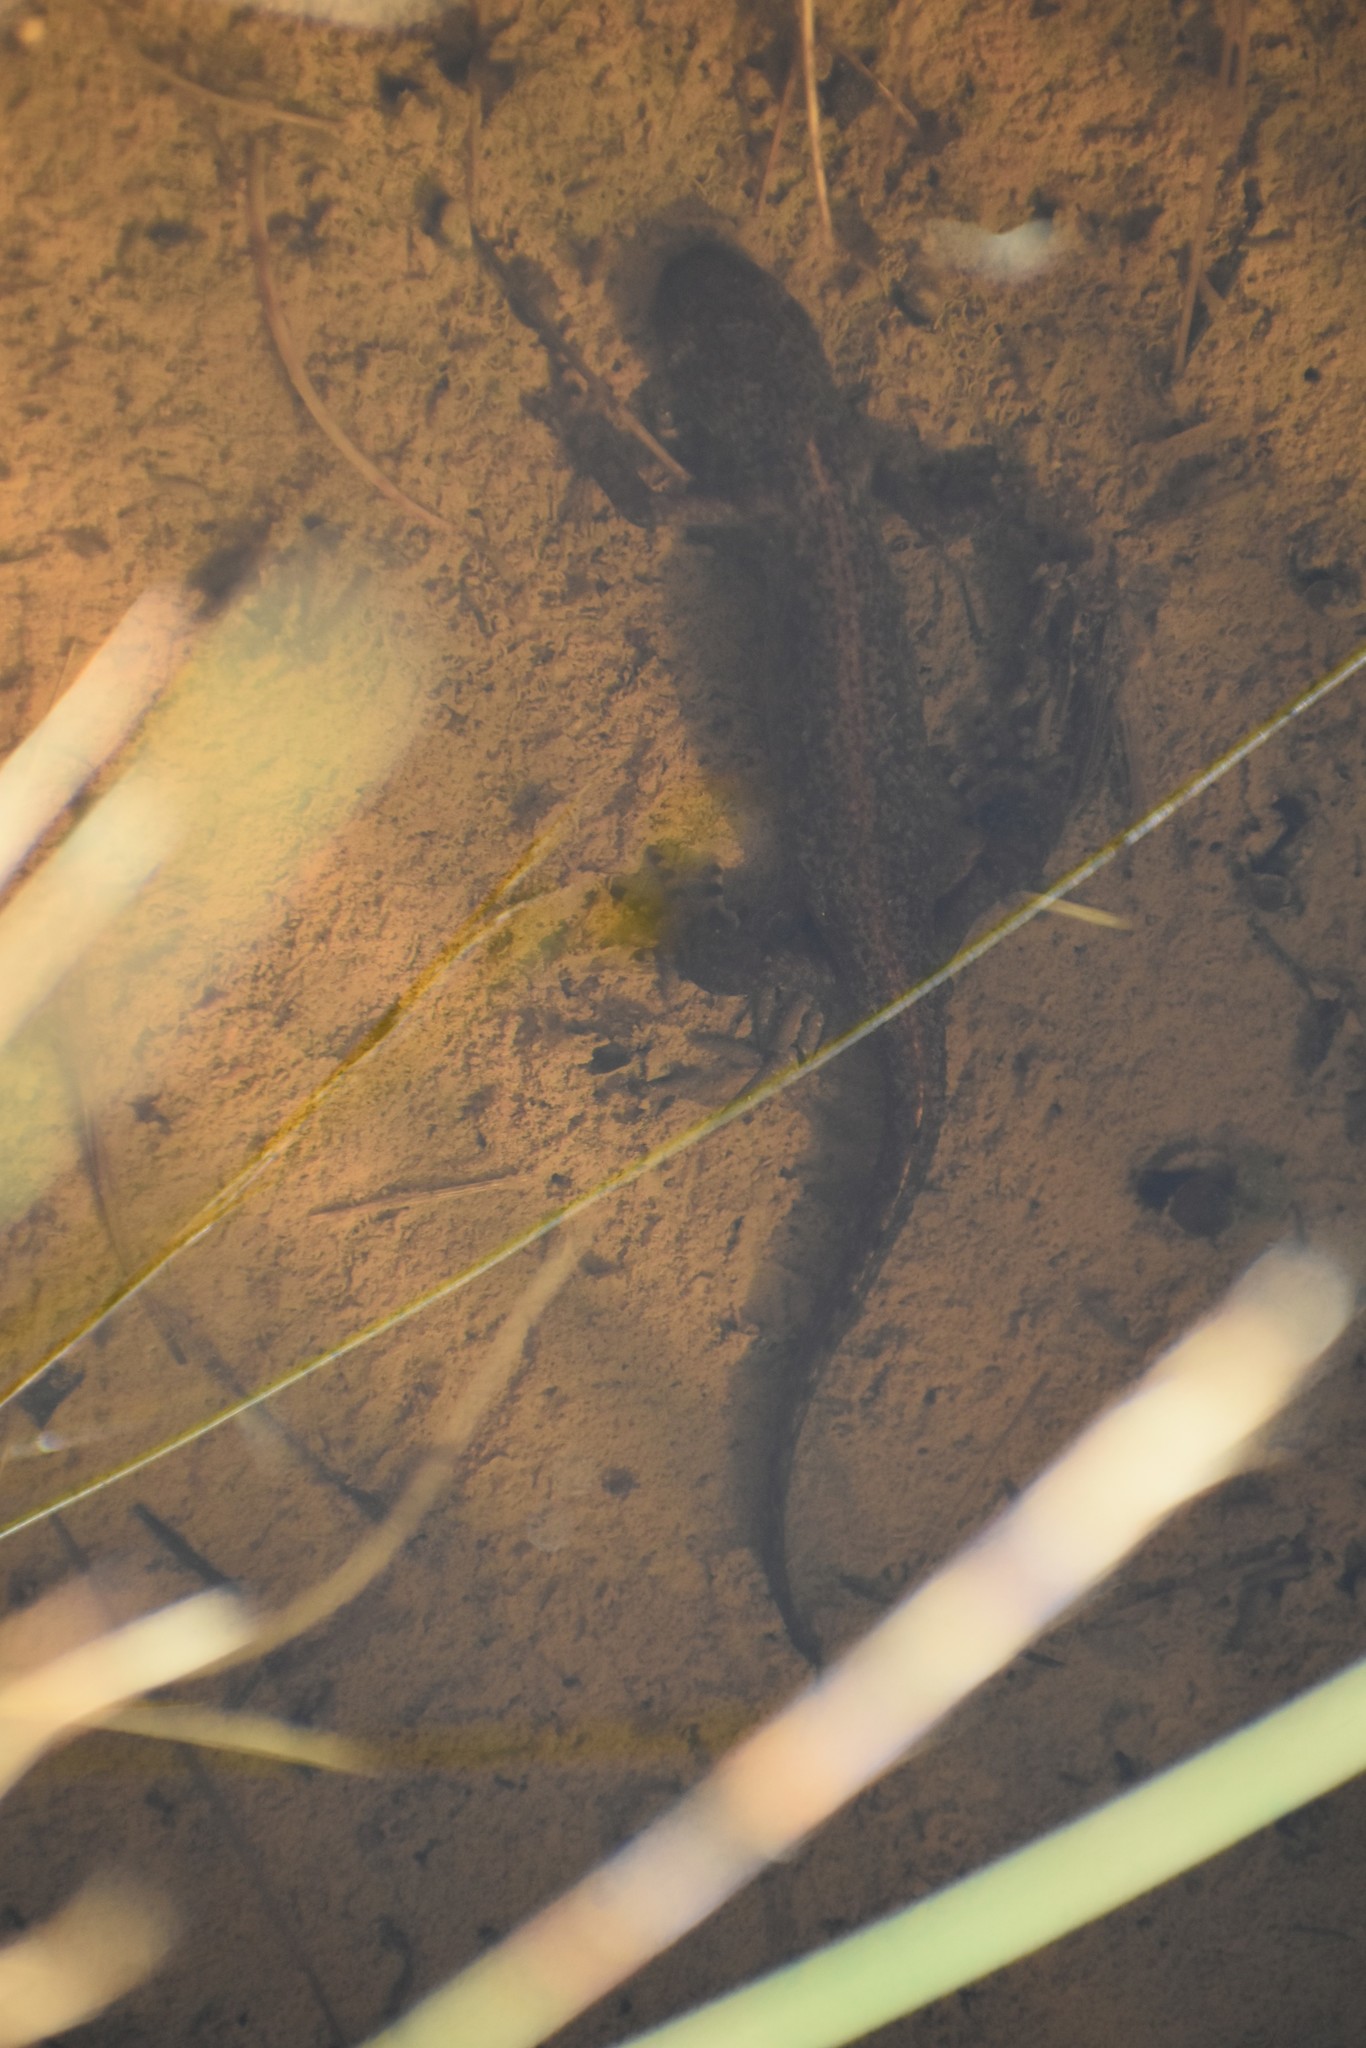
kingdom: Animalia
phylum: Chordata
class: Amphibia
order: Caudata
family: Salamandridae
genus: Ichthyosaura
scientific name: Ichthyosaura alpestris
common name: Alpine newt
